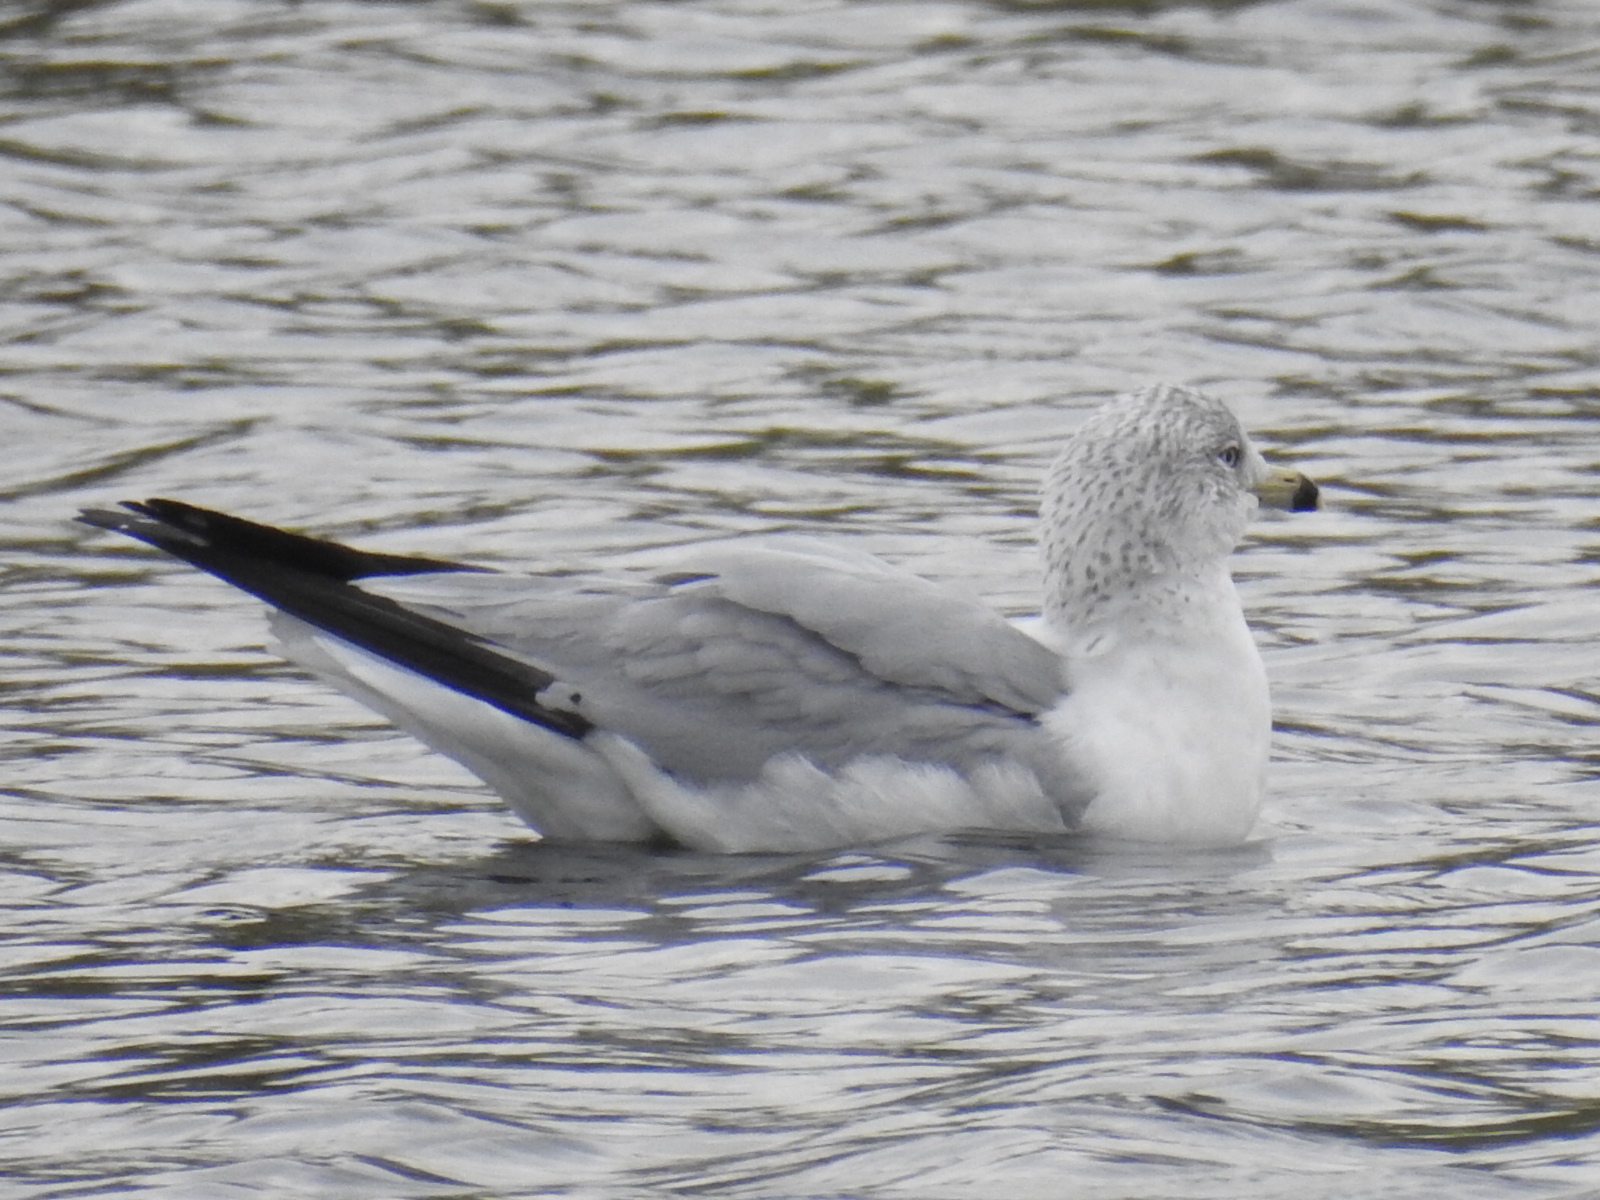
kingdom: Animalia
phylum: Chordata
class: Aves
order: Charadriiformes
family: Laridae
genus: Larus
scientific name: Larus delawarensis
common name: Ring-billed gull
